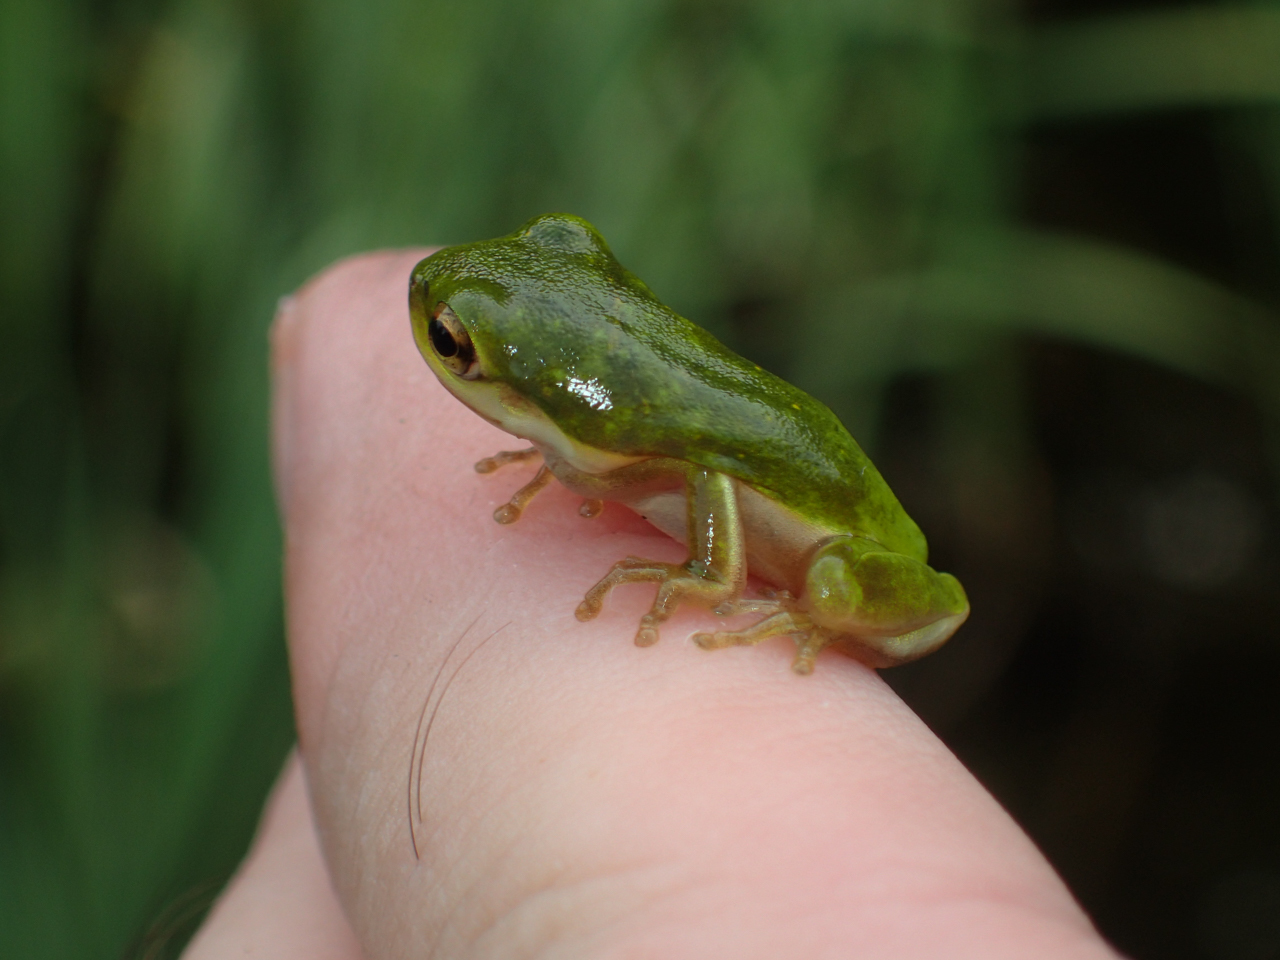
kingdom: Animalia
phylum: Chordata
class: Amphibia
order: Anura
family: Hylidae
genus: Dryophytes
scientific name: Dryophytes cinereus
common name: Green treefrog
